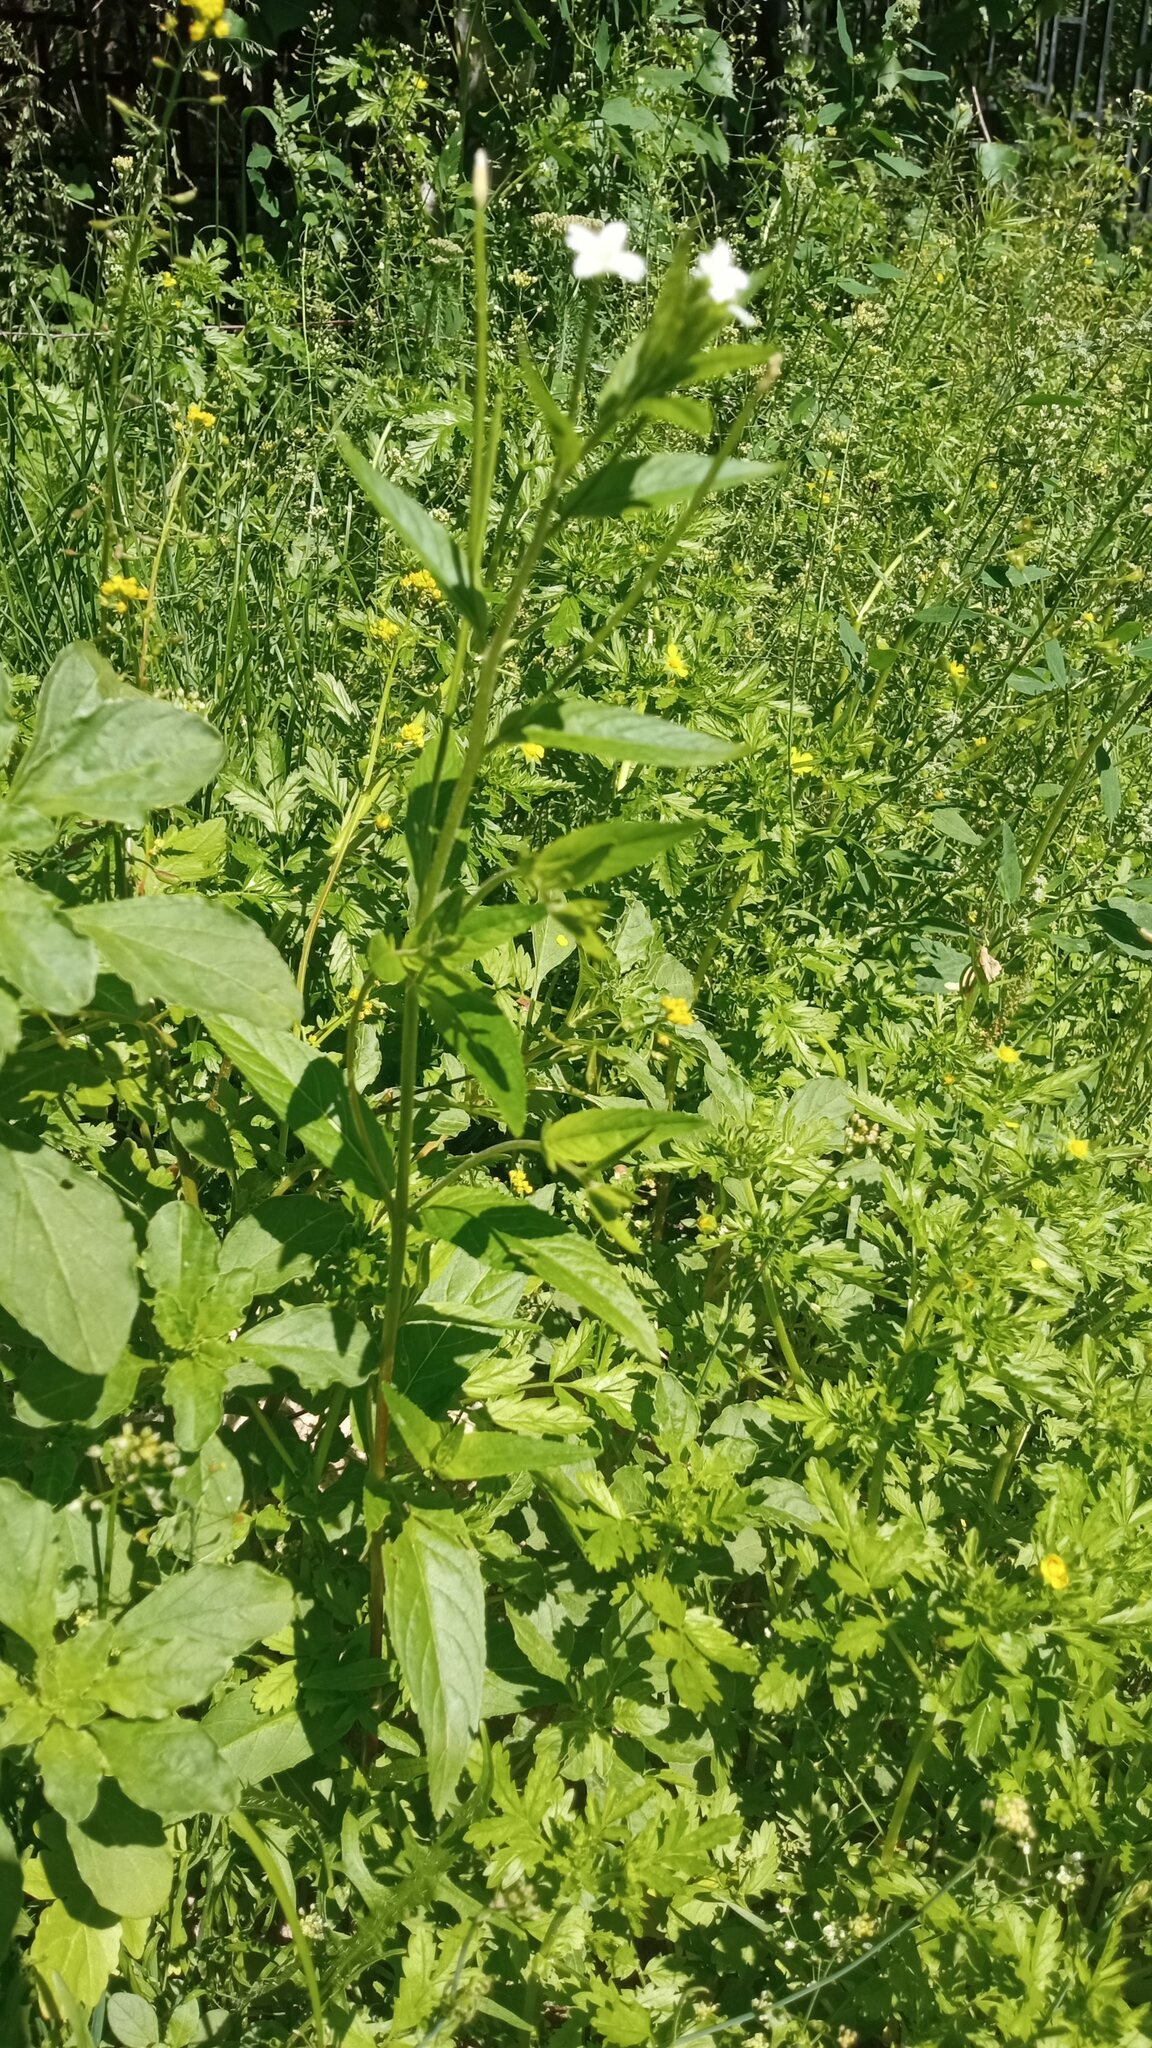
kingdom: Plantae
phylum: Tracheophyta
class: Magnoliopsida
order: Myrtales
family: Onagraceae
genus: Epilobium
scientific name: Epilobium pseudorubescens
